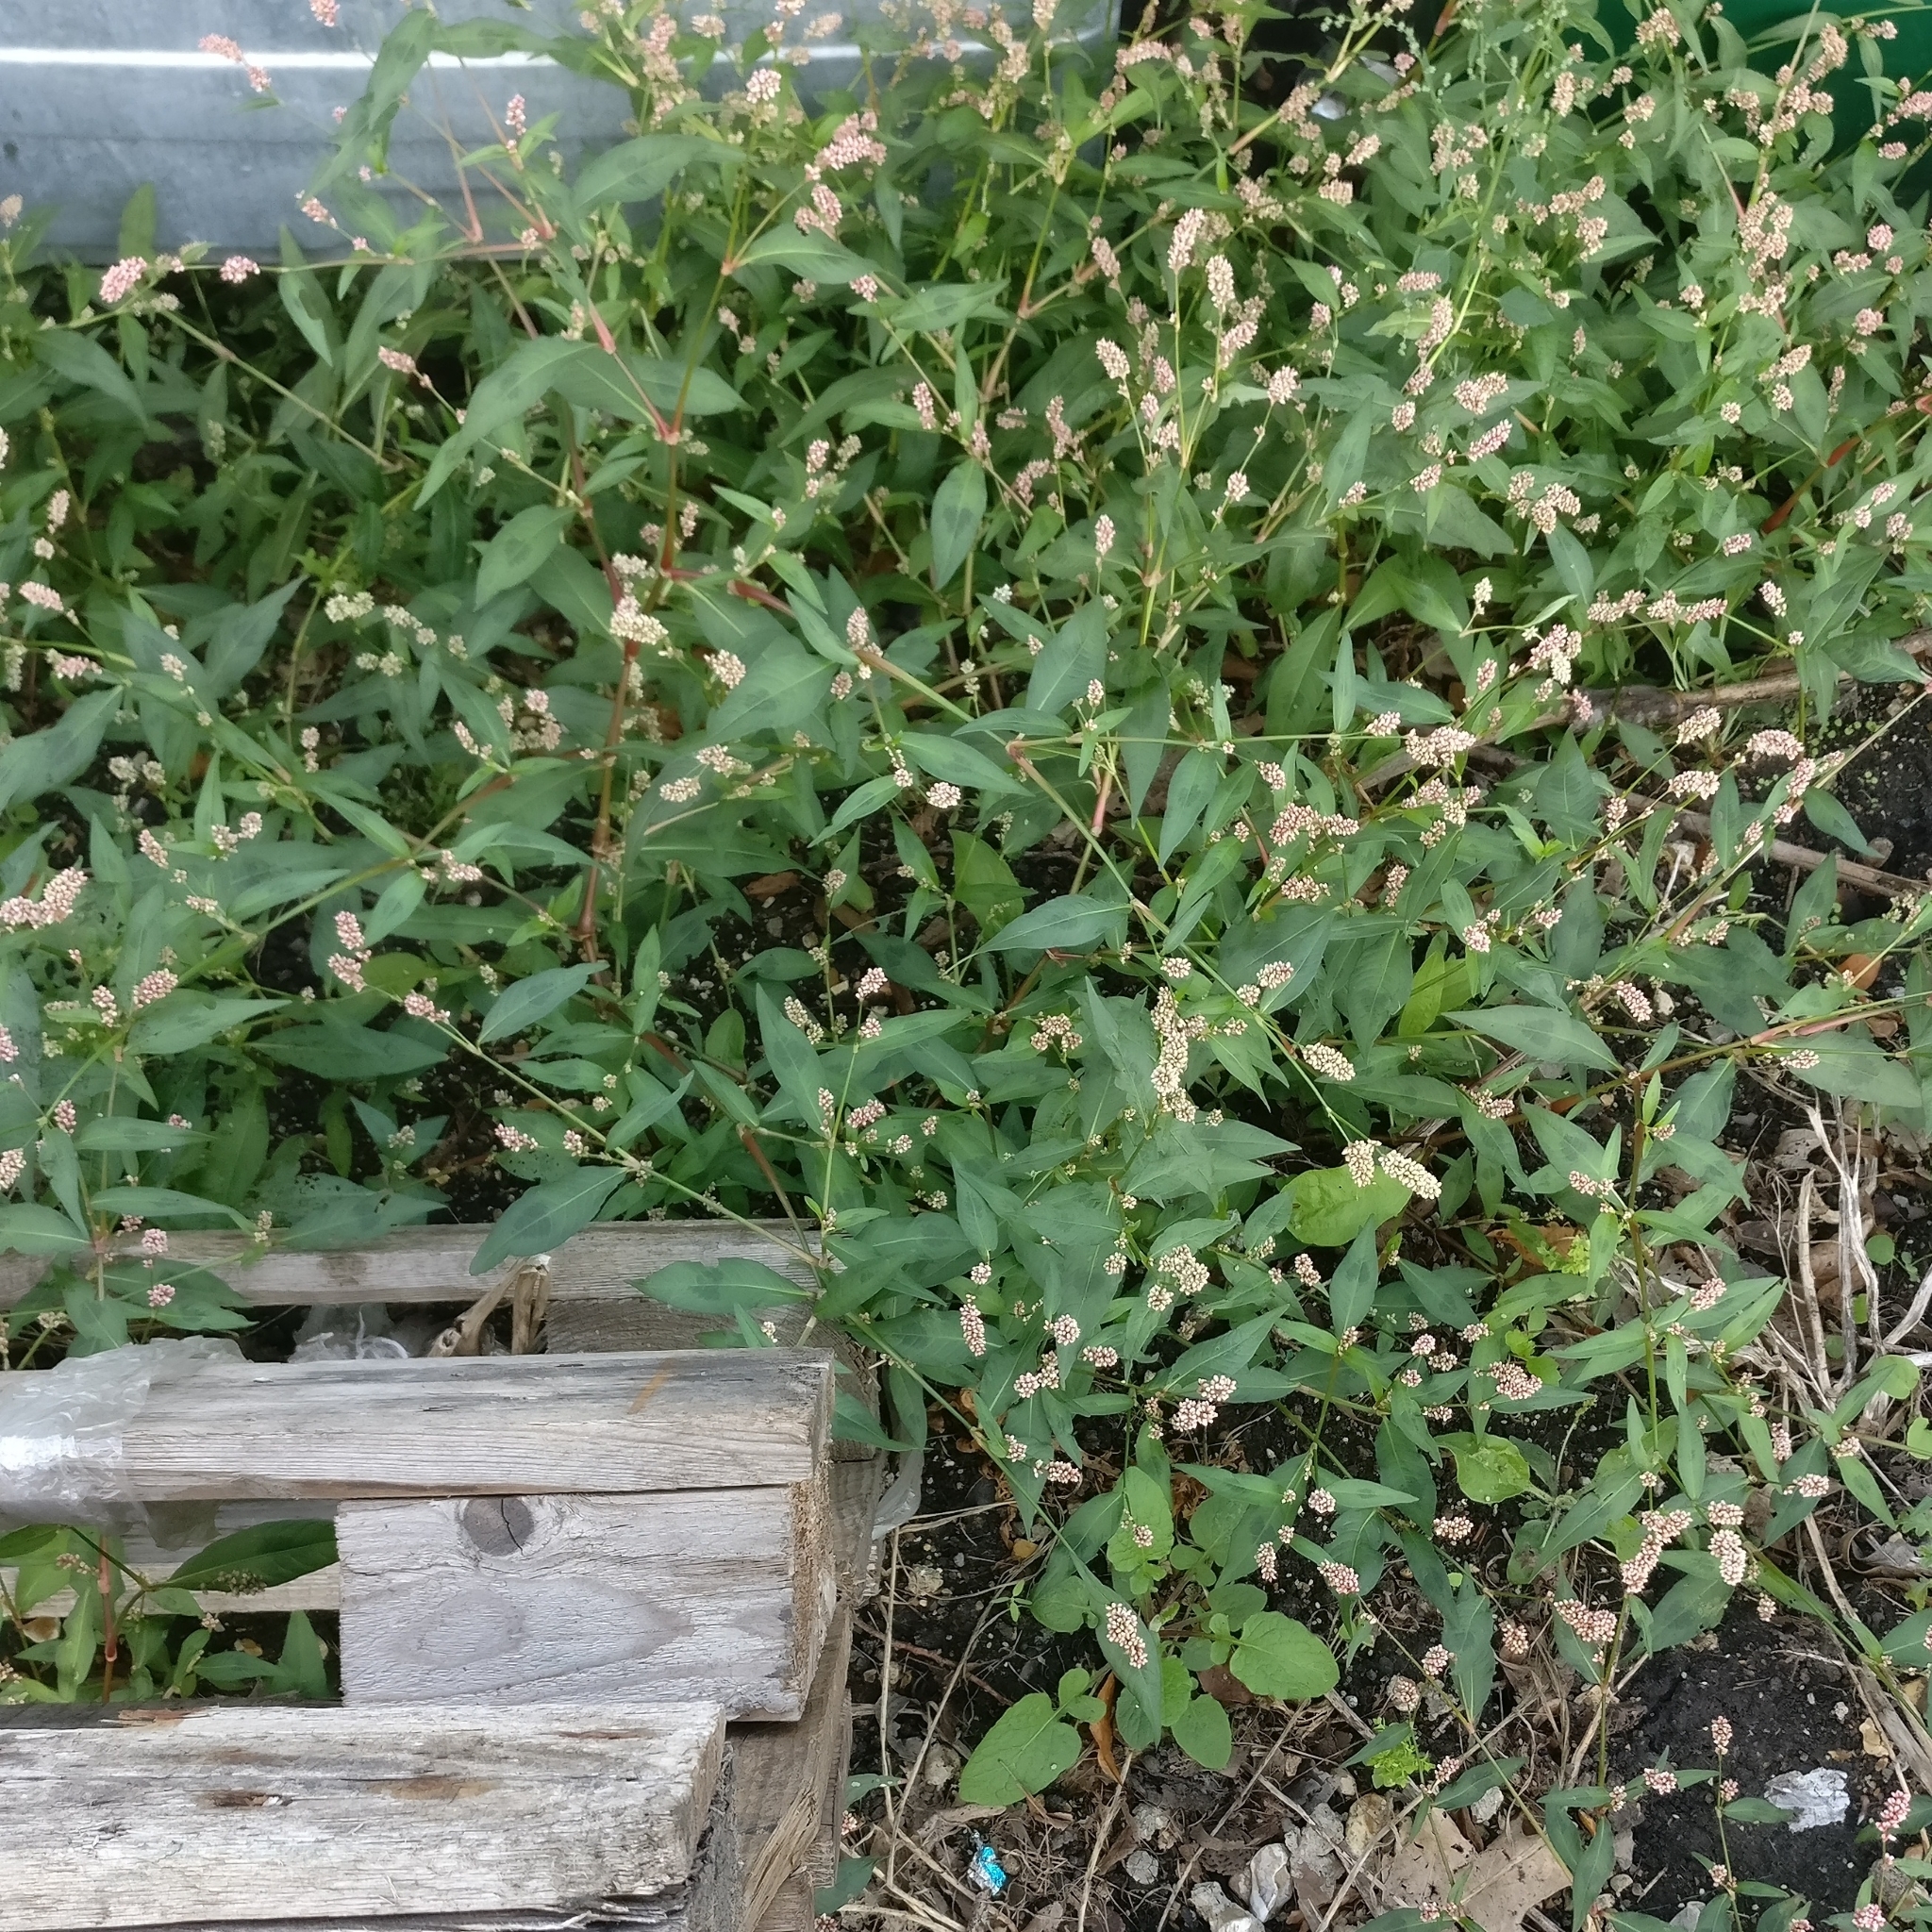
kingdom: Plantae
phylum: Tracheophyta
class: Magnoliopsida
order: Caryophyllales
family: Polygonaceae
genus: Persicaria
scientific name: Persicaria maculosa
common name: Redshank
